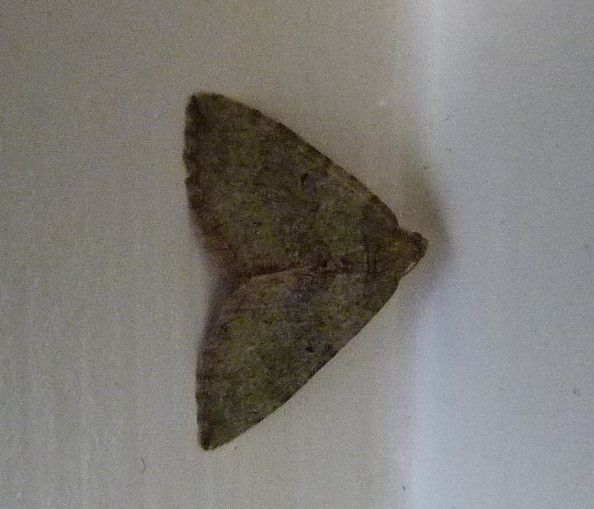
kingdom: Animalia
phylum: Arthropoda
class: Insecta
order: Lepidoptera
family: Geometridae
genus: Epyaxa
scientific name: Epyaxa rosearia
